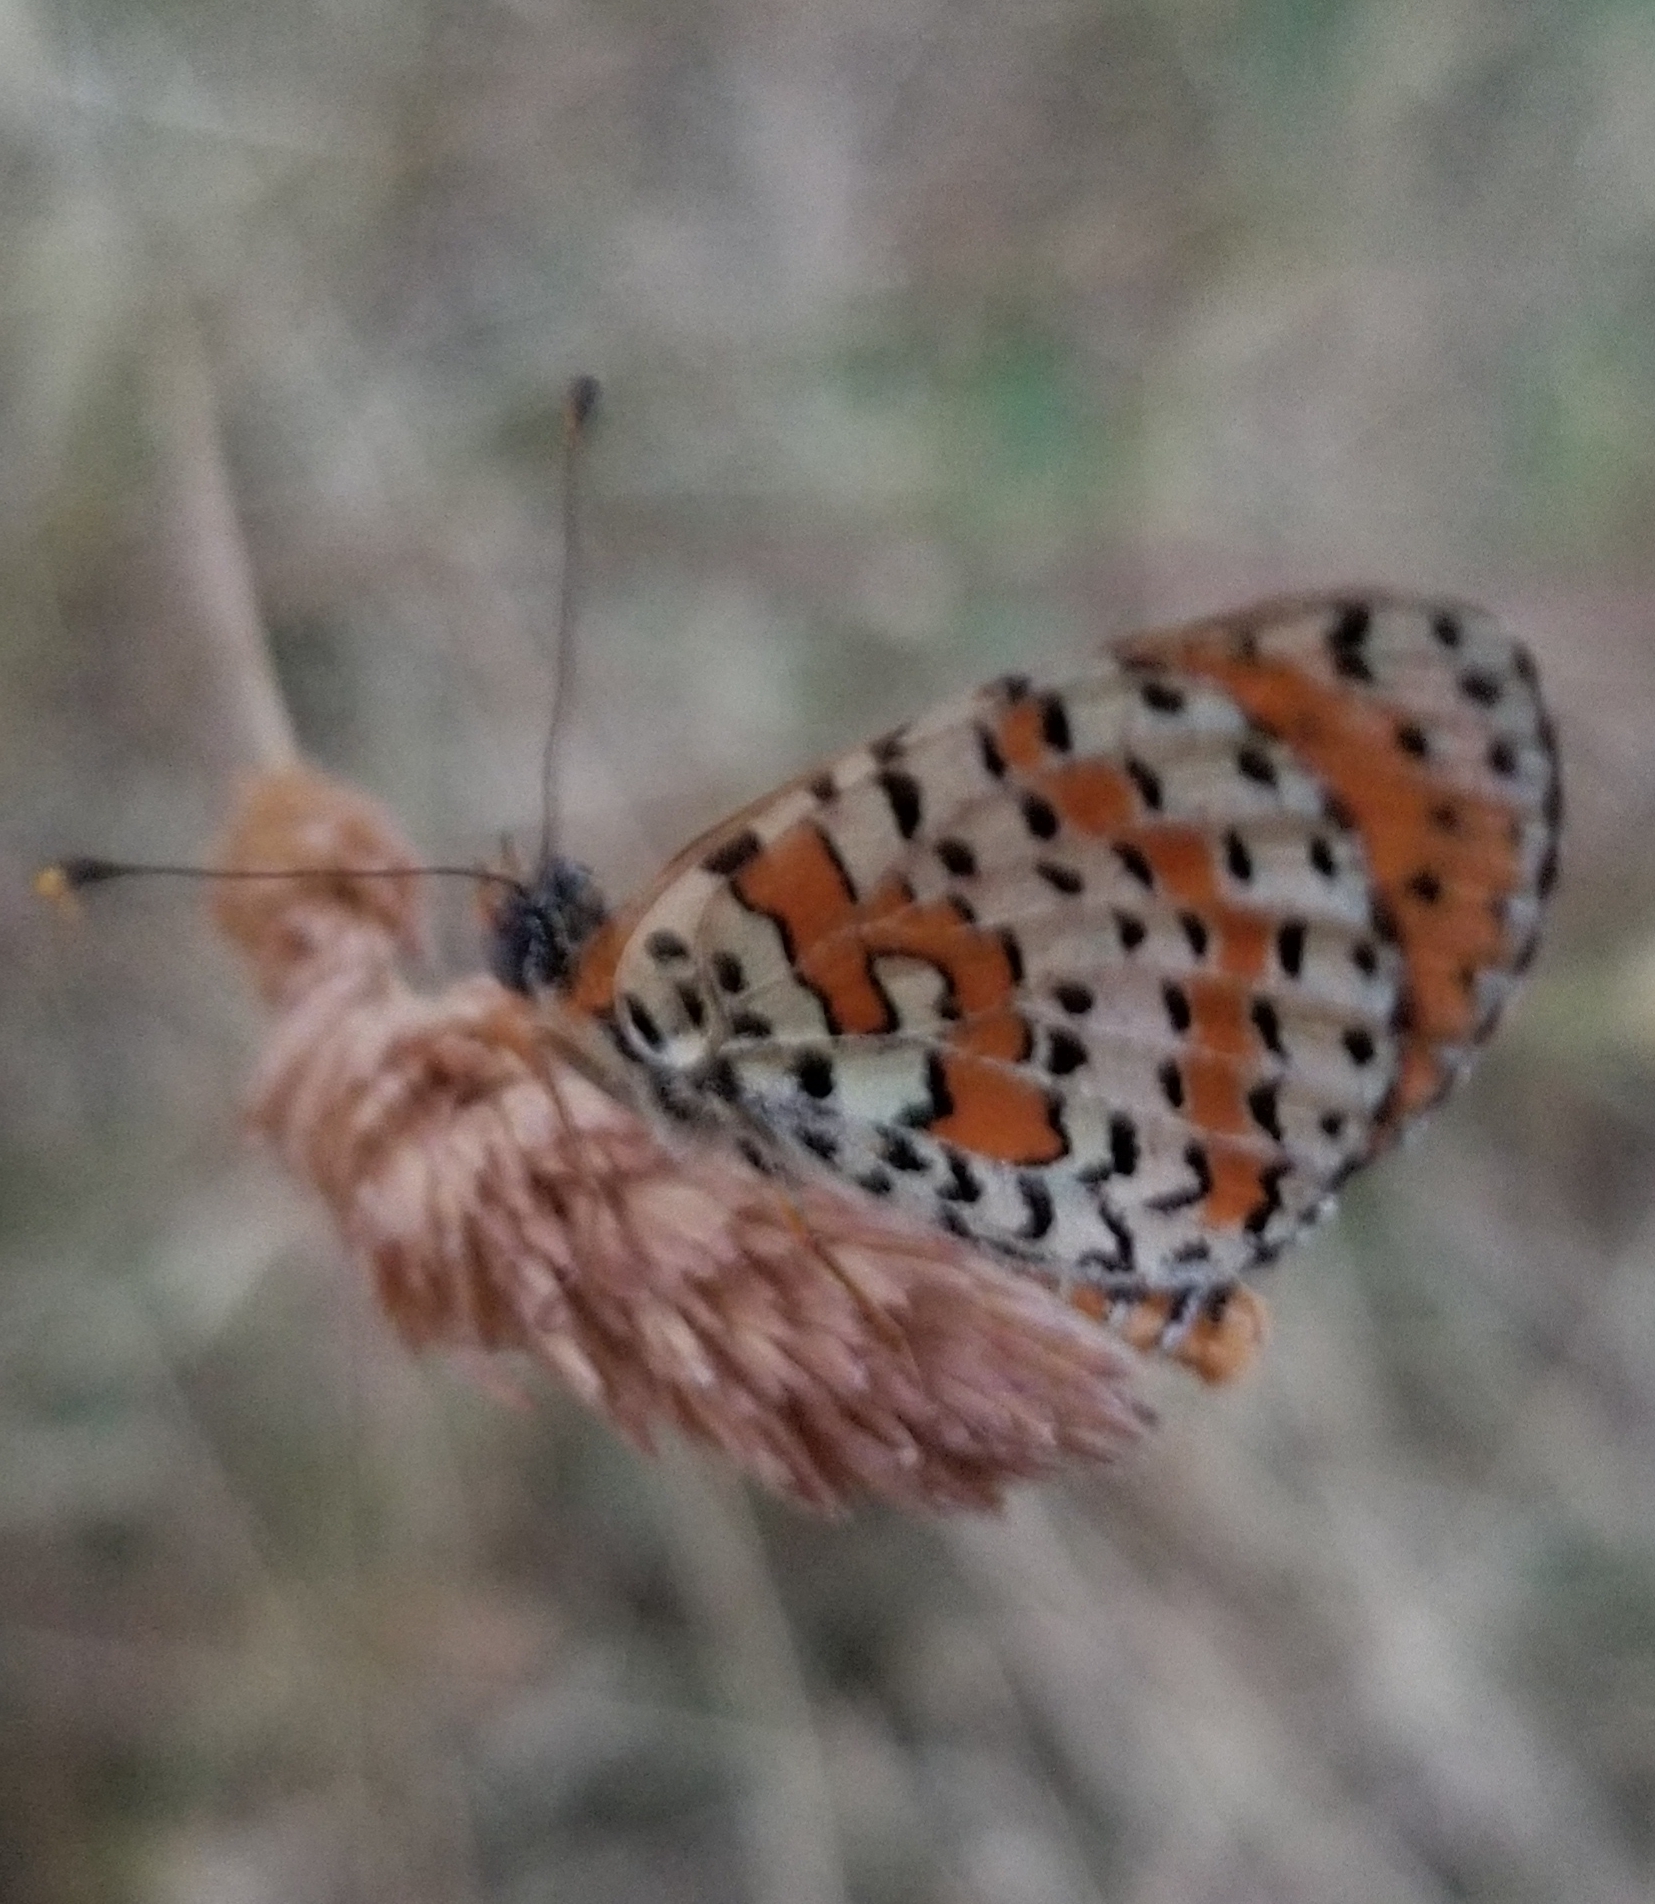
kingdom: Animalia
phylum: Arthropoda
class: Insecta
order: Lepidoptera
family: Nymphalidae
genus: Melitaea
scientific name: Melitaea didyma
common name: Spotted fritillary
